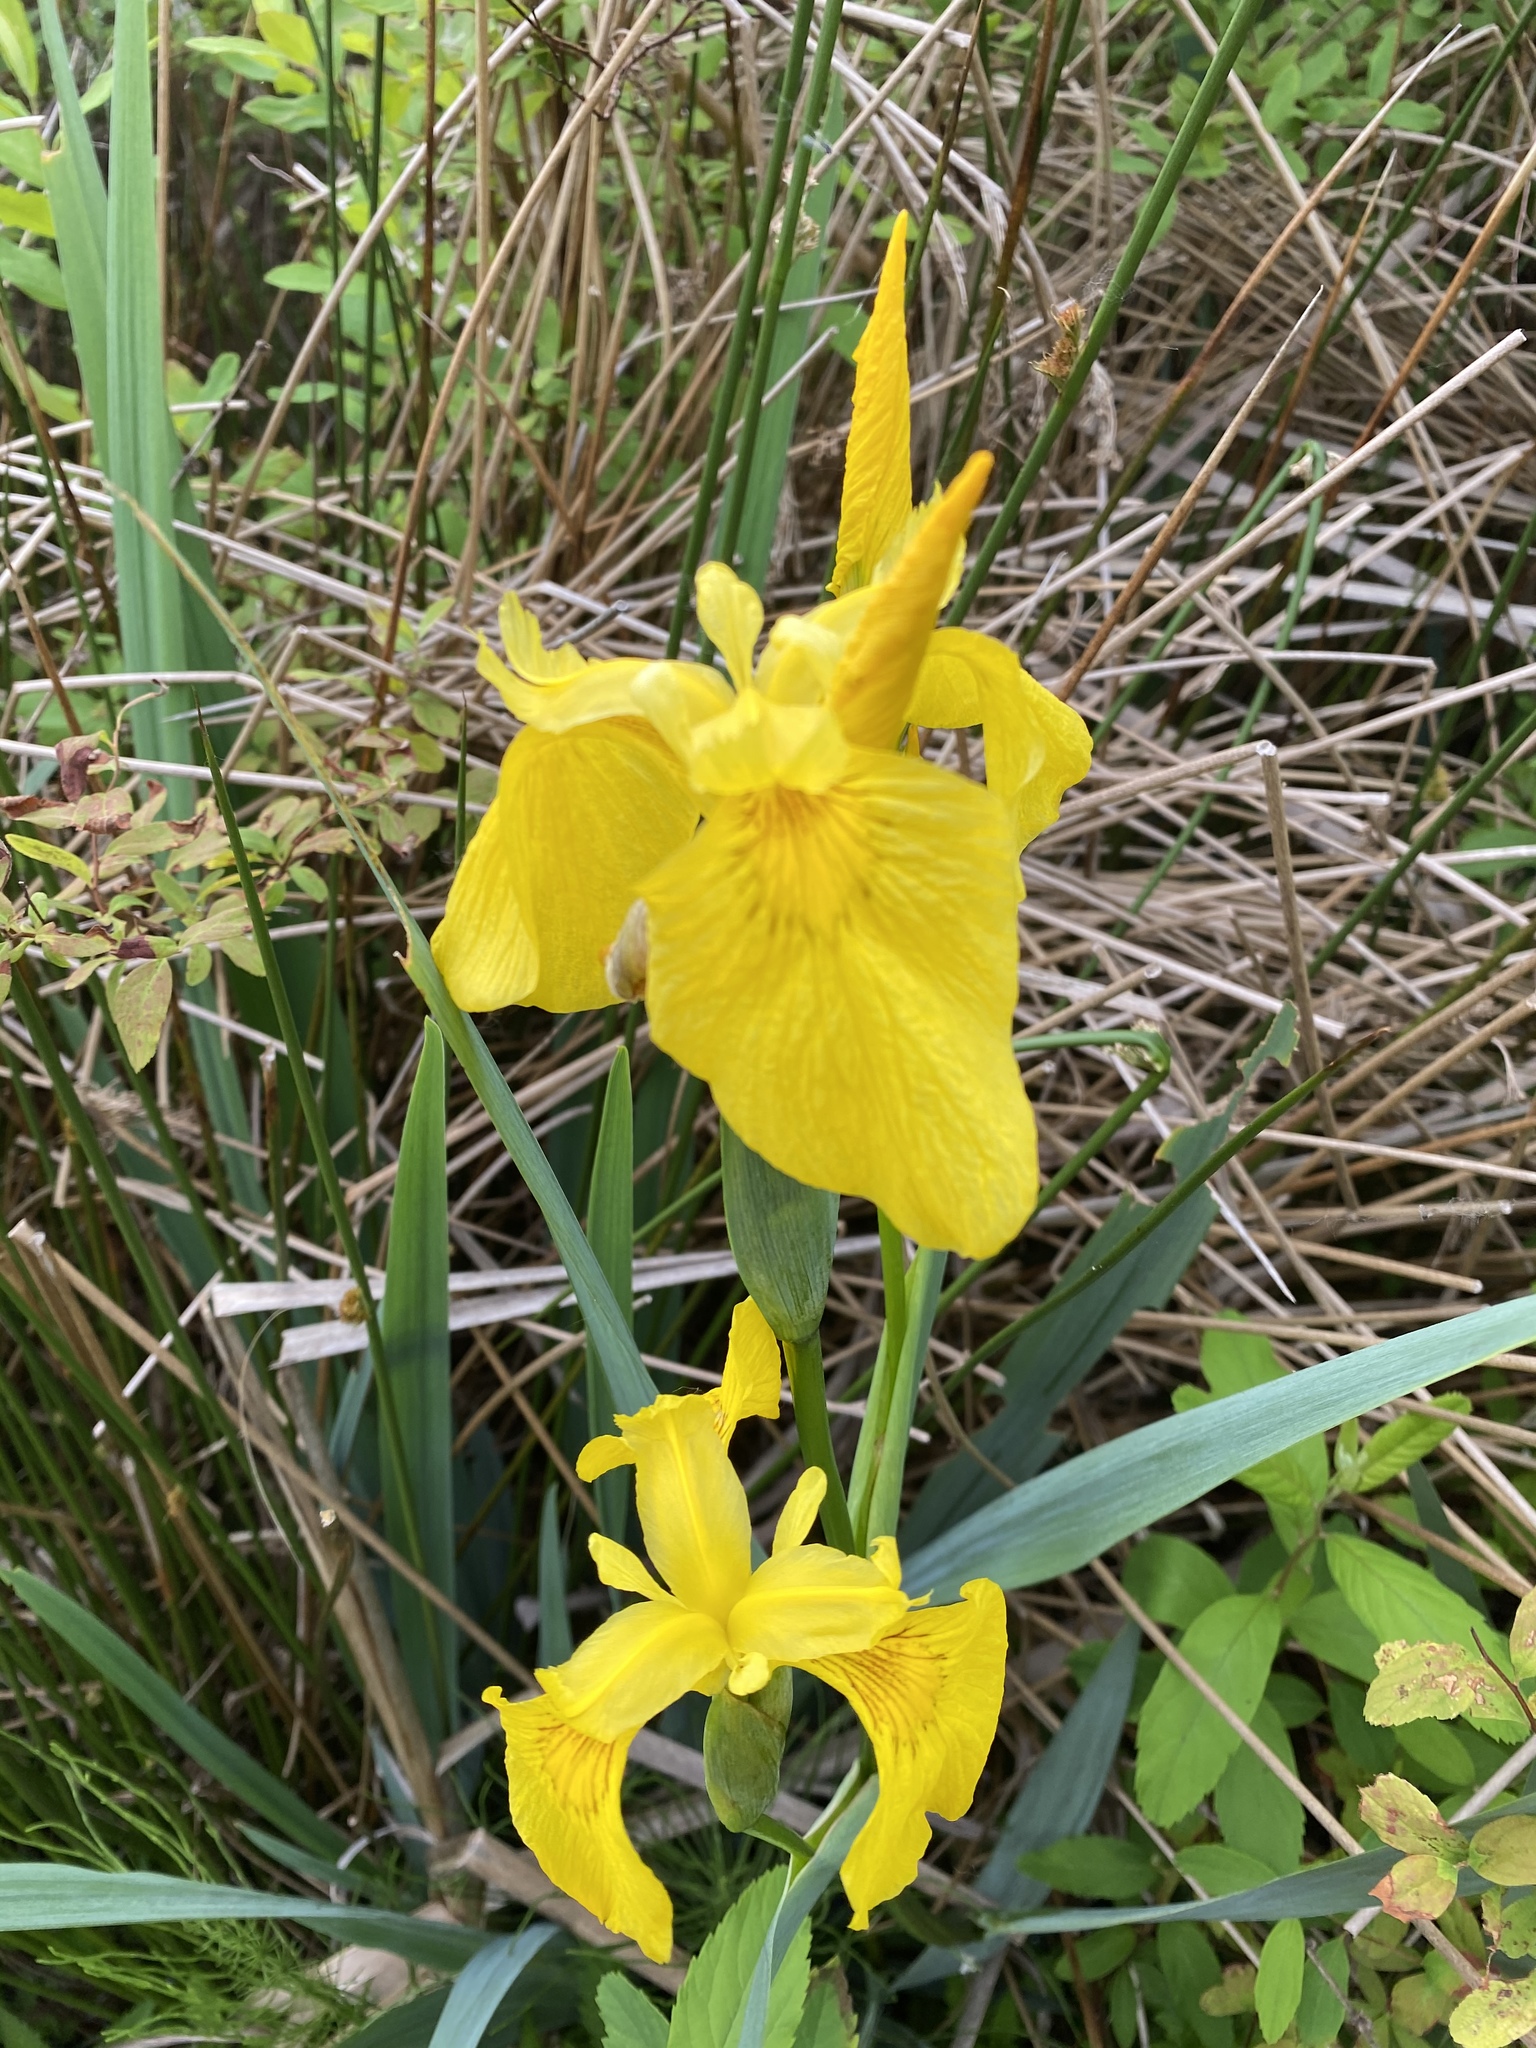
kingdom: Plantae
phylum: Tracheophyta
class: Liliopsida
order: Asparagales
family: Iridaceae
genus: Iris
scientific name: Iris pseudacorus
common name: Yellow flag
